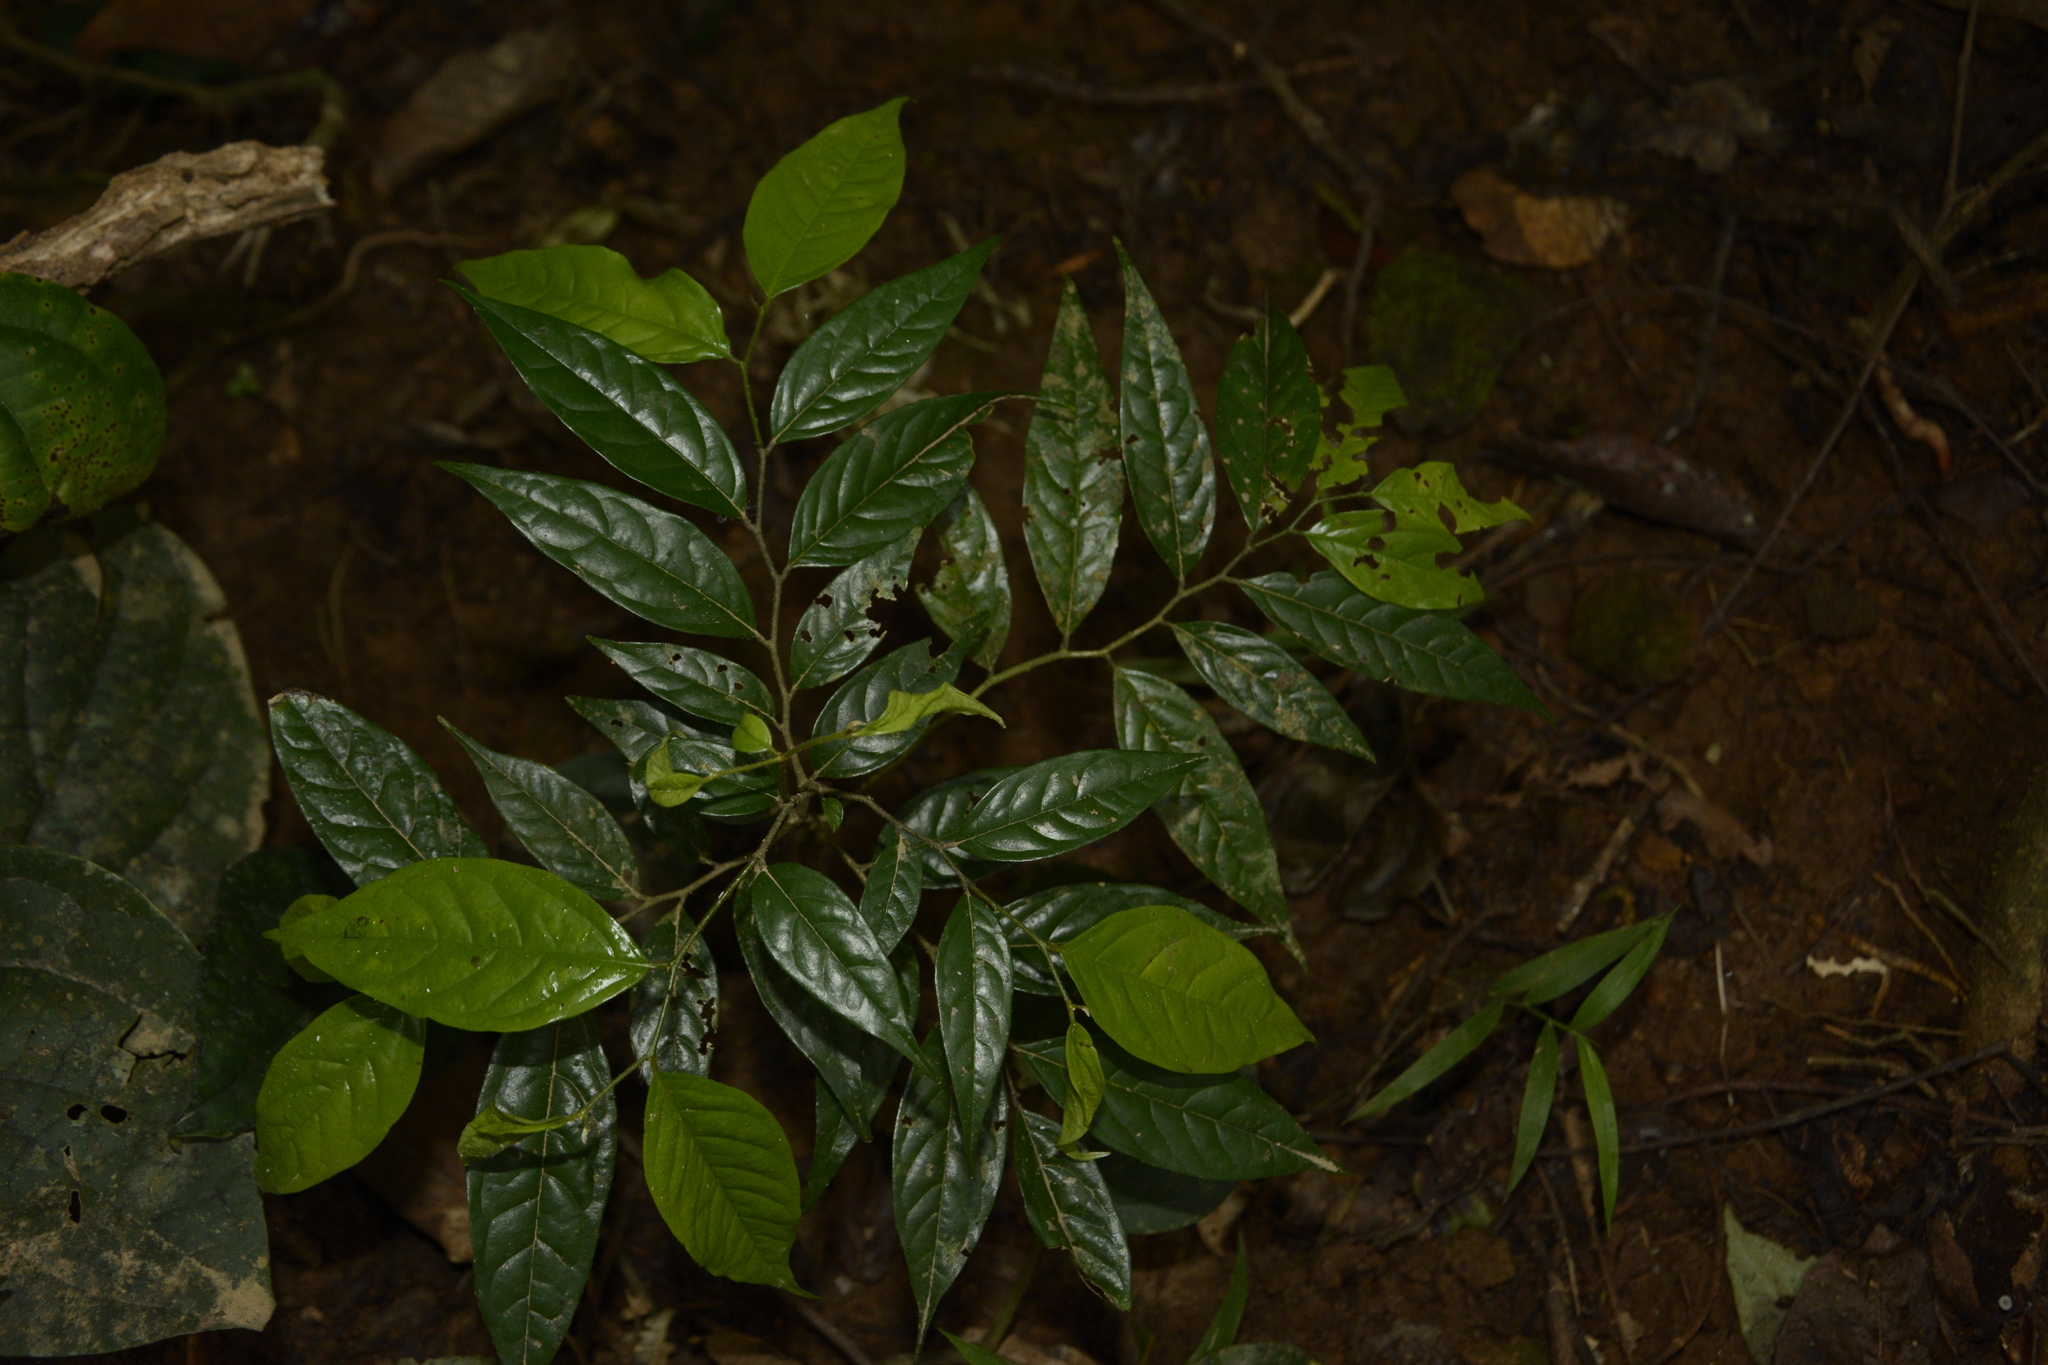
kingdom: Plantae
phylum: Tracheophyta
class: Magnoliopsida
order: Ericales
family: Ebenaceae
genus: Diospyros
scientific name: Diospyros sylvatica
